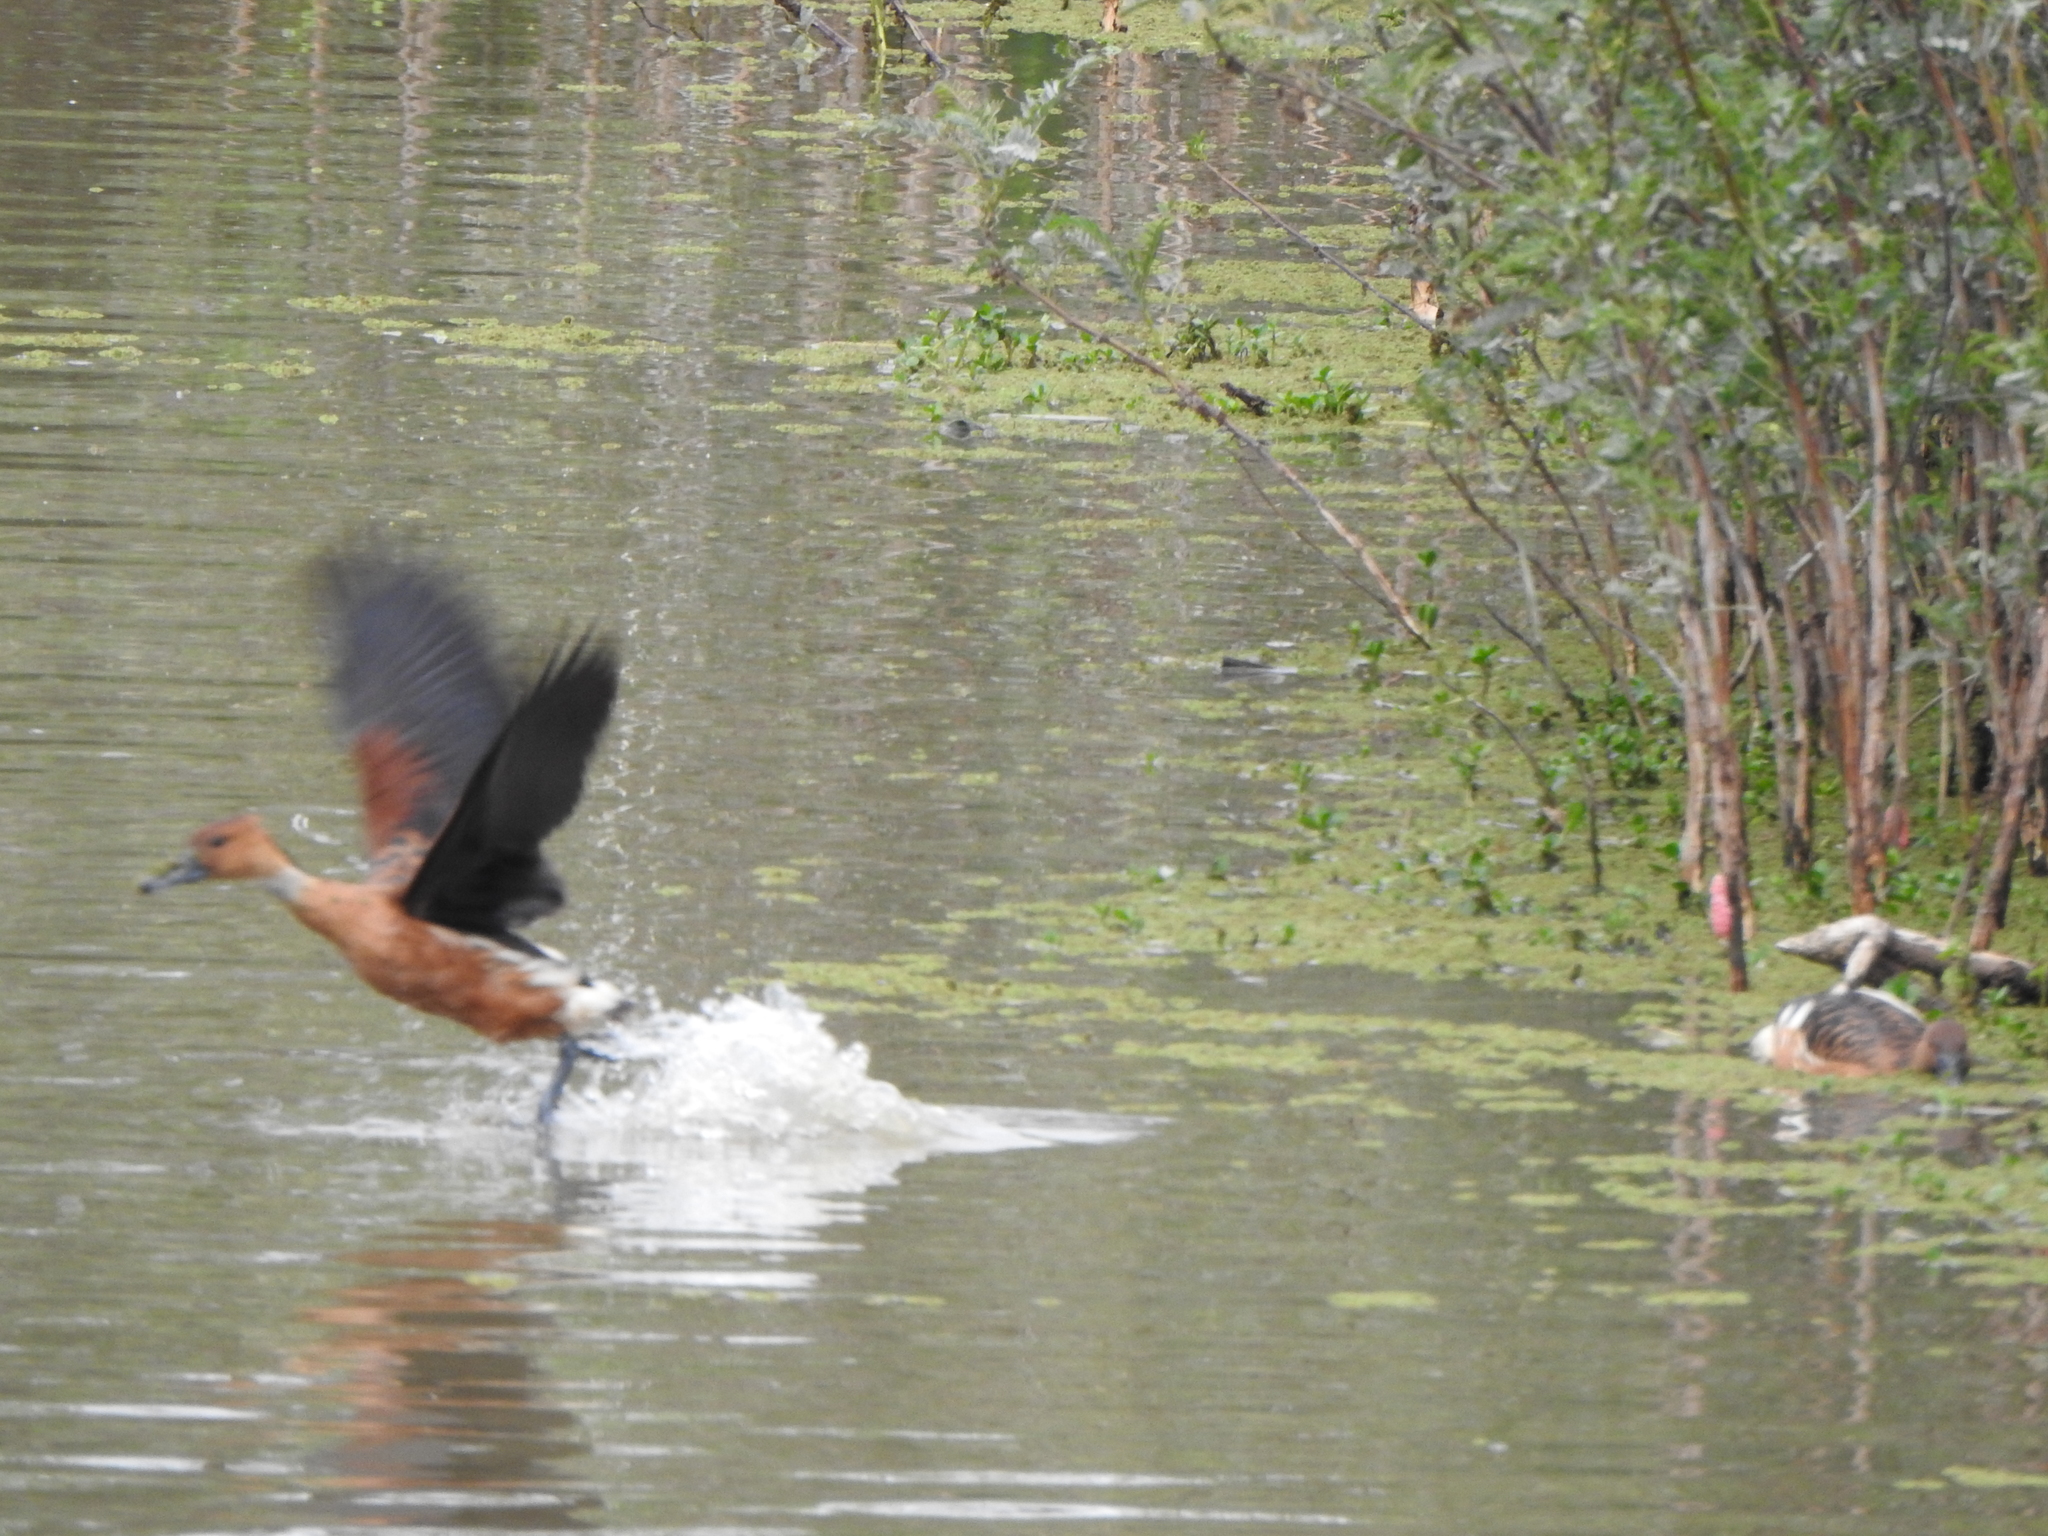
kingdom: Animalia
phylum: Chordata
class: Aves
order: Anseriformes
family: Anatidae
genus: Dendrocygna
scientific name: Dendrocygna bicolor
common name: Fulvous whistling duck
